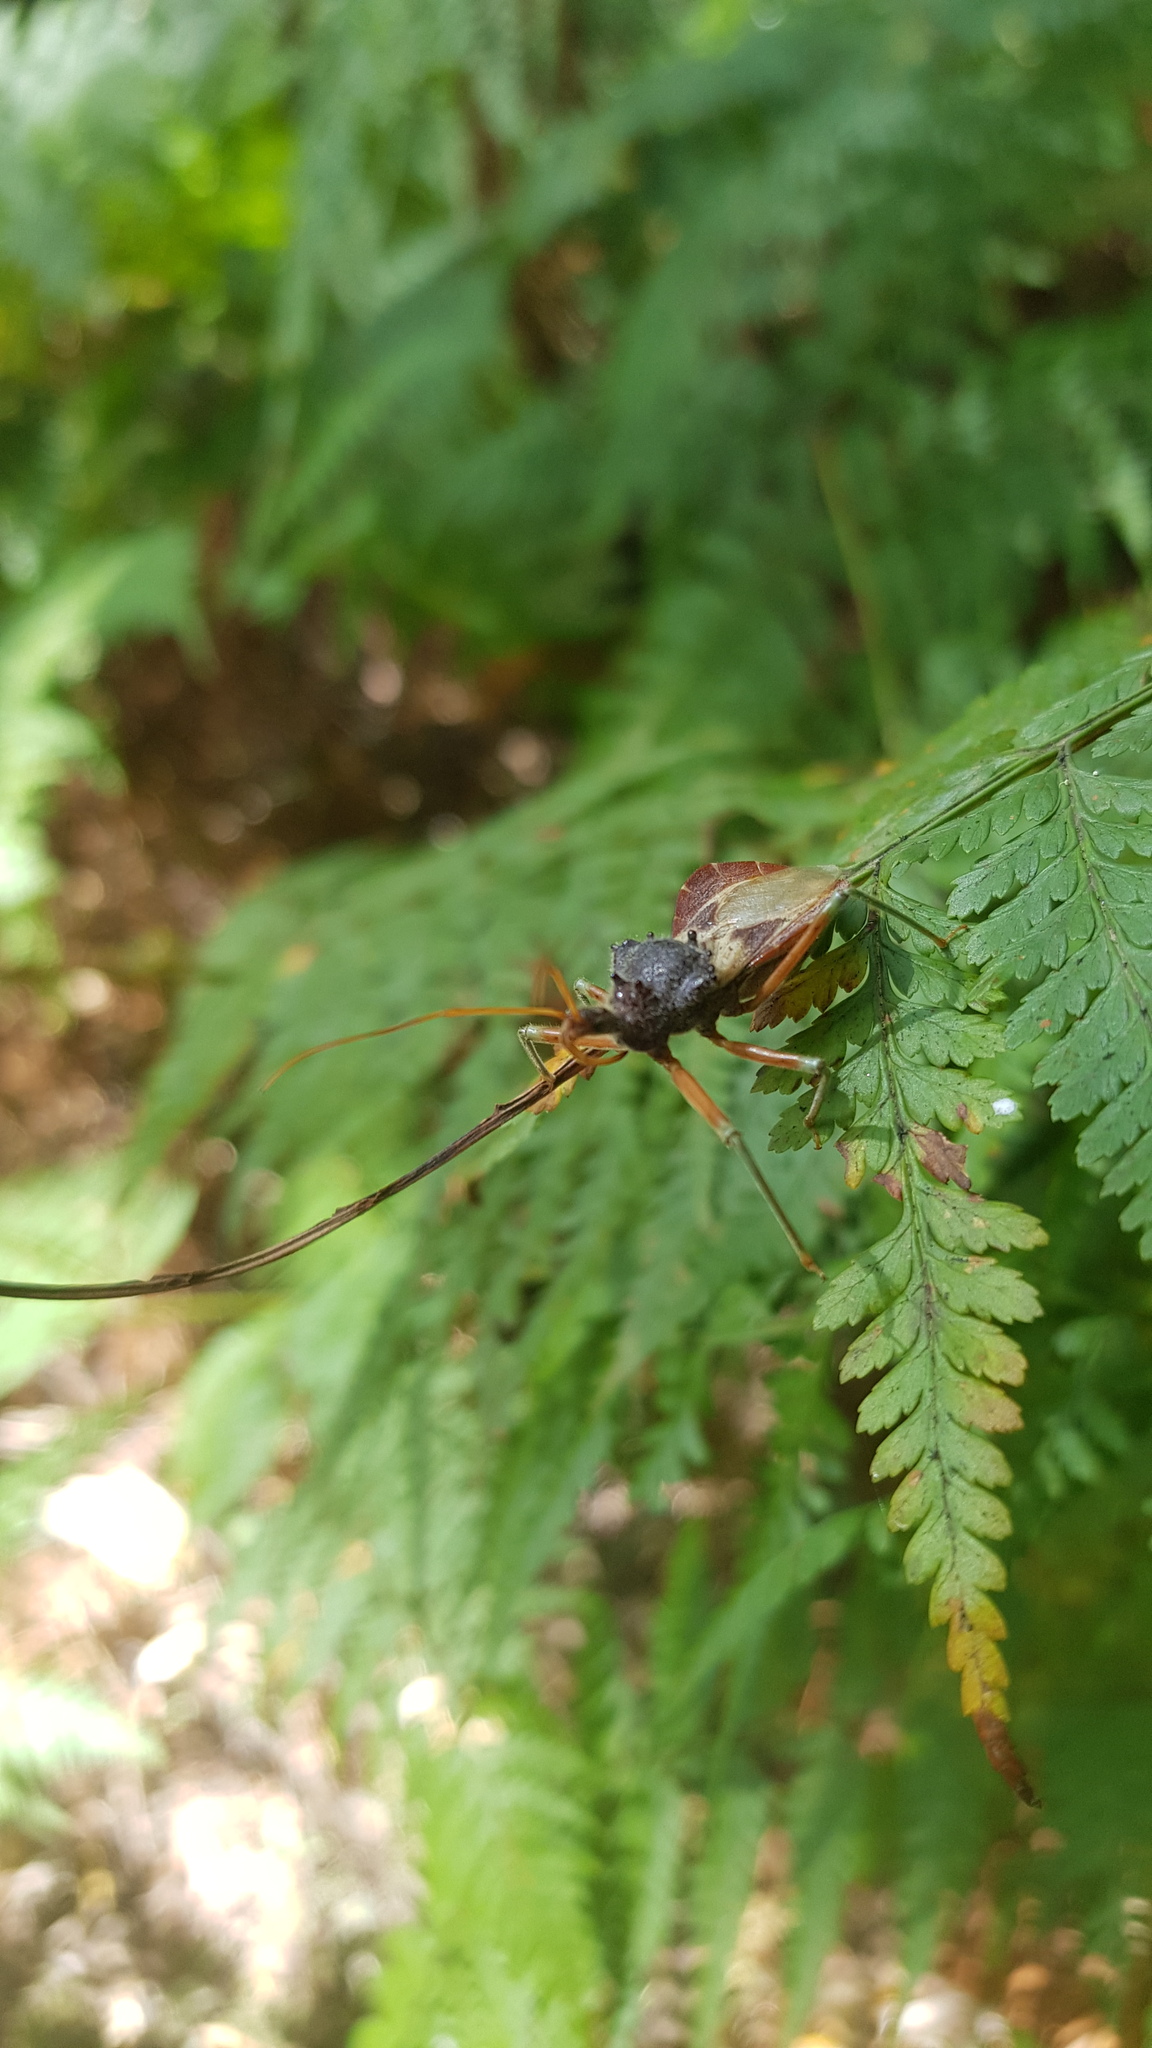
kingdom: Animalia
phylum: Arthropoda
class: Insecta
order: Hemiptera
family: Reduviidae
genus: Pristhesancus
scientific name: Pristhesancus plagipennis
